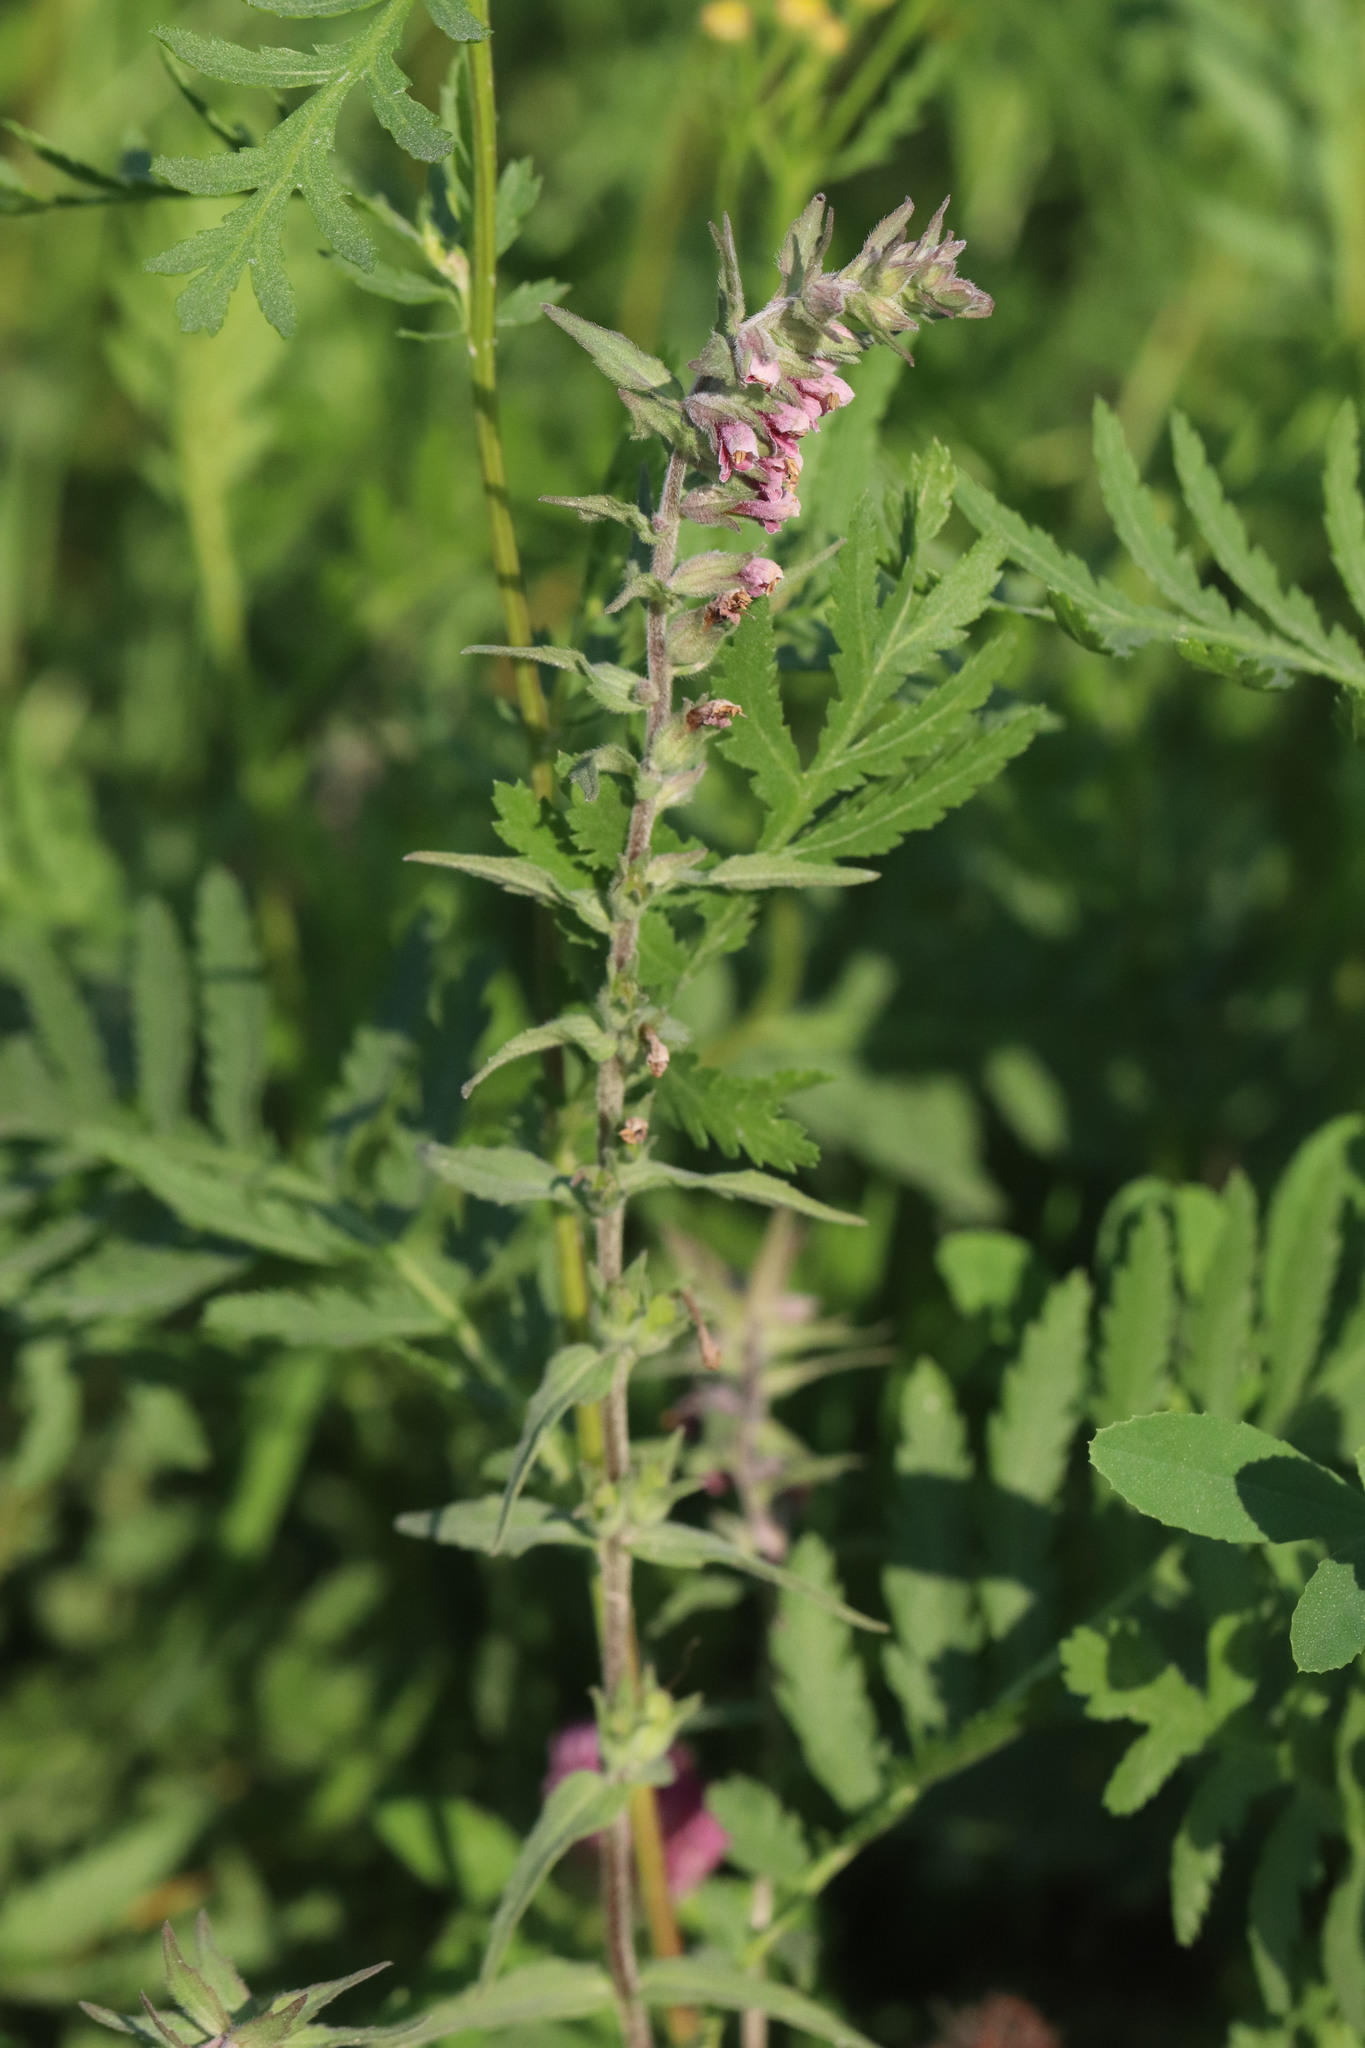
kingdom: Plantae
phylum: Tracheophyta
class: Magnoliopsida
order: Lamiales
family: Orobanchaceae
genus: Odontites
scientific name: Odontites vulgaris
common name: Broomrape
